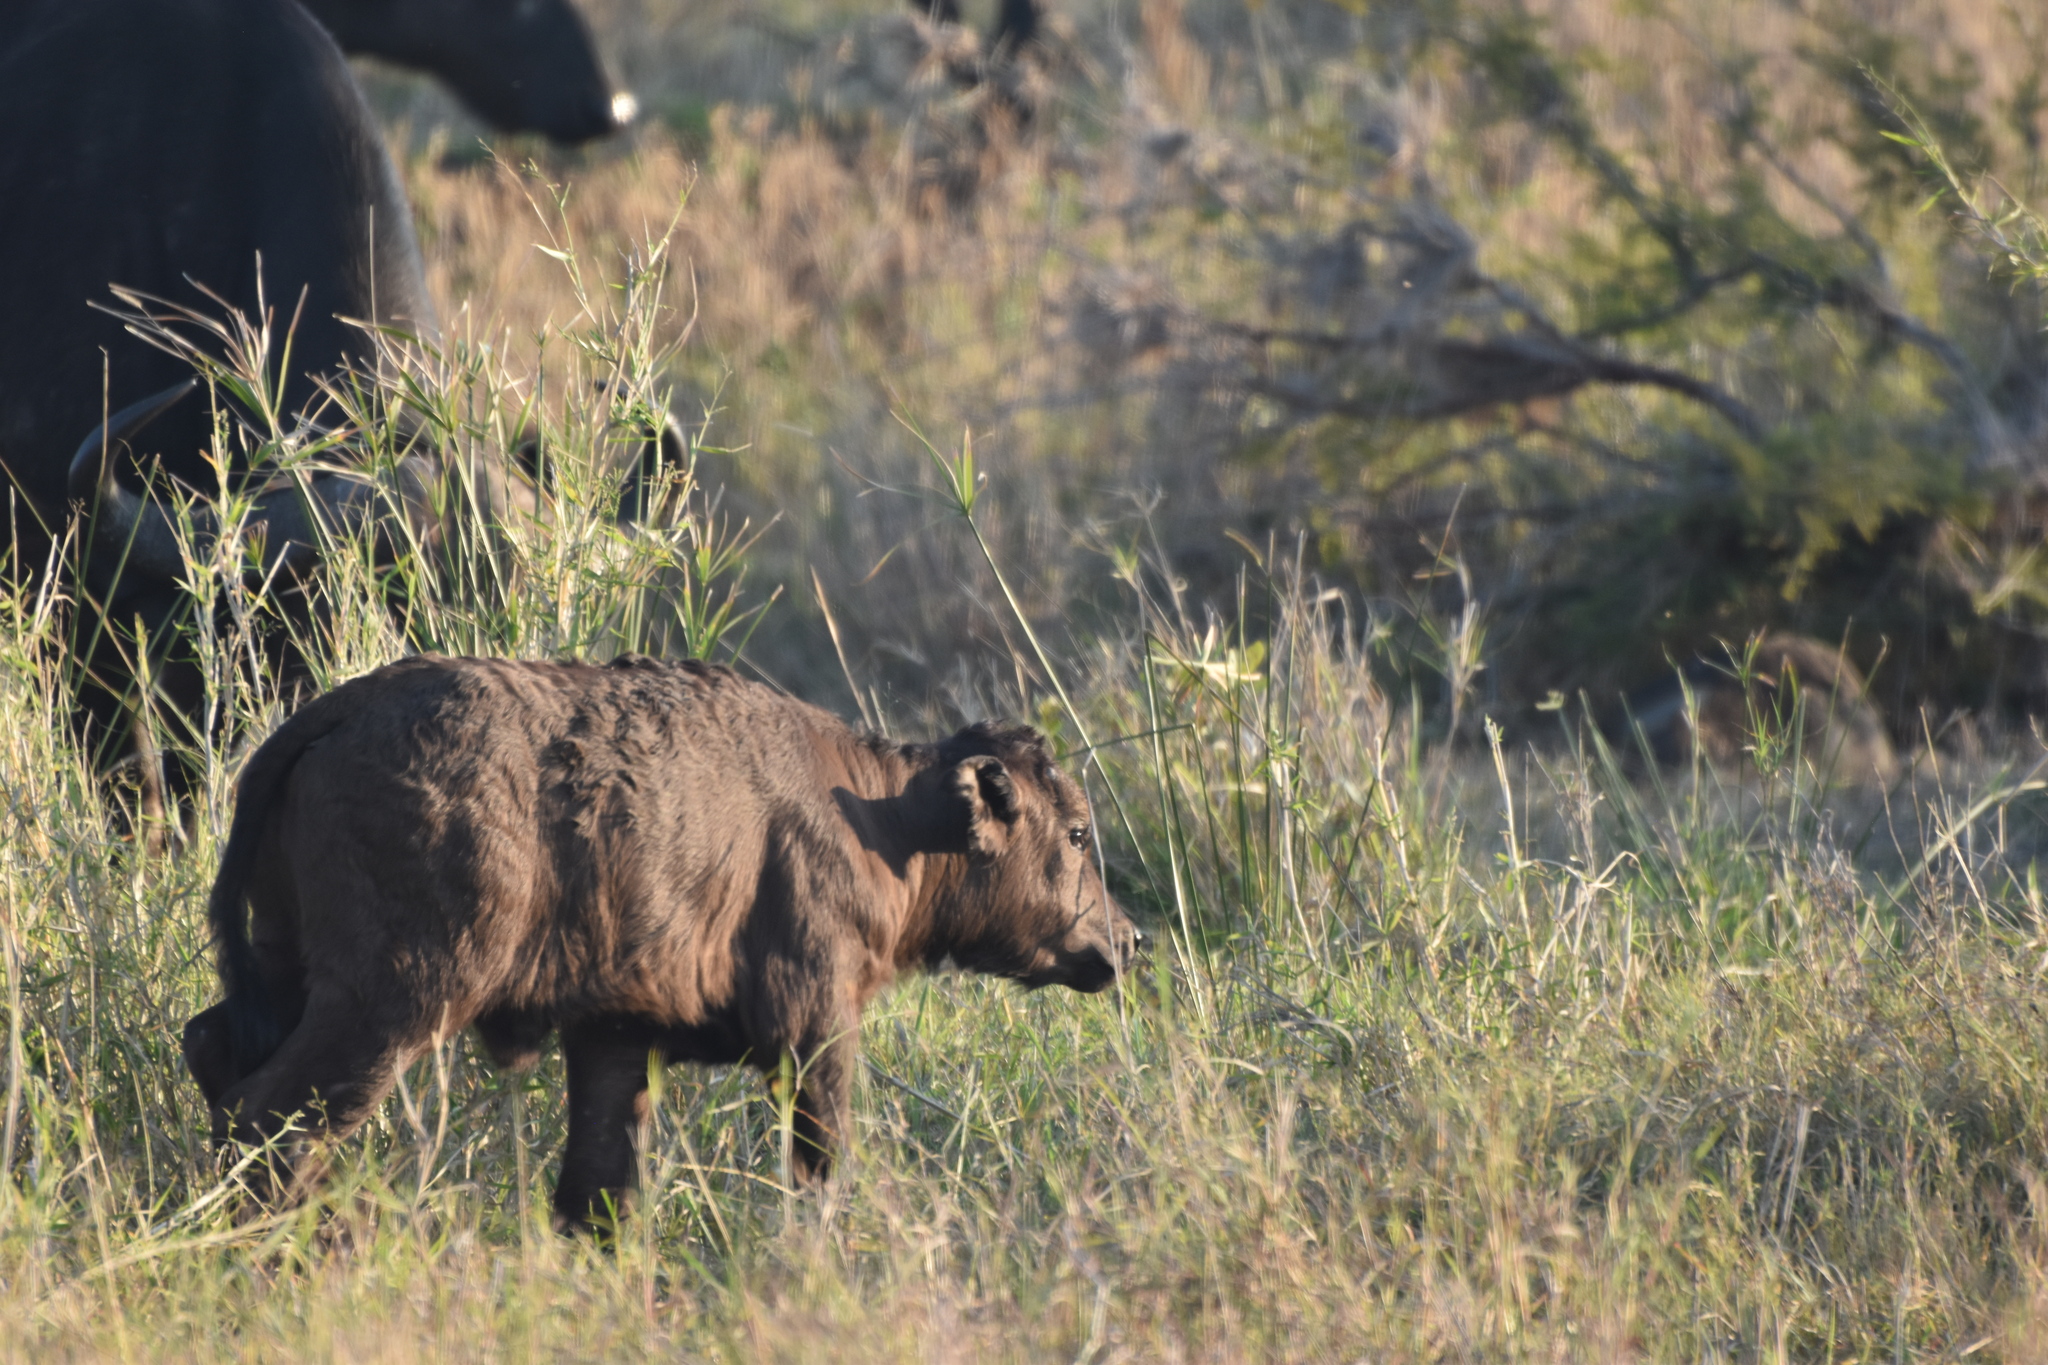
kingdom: Animalia
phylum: Chordata
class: Mammalia
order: Artiodactyla
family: Bovidae
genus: Syncerus
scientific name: Syncerus caffer
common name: African buffalo
